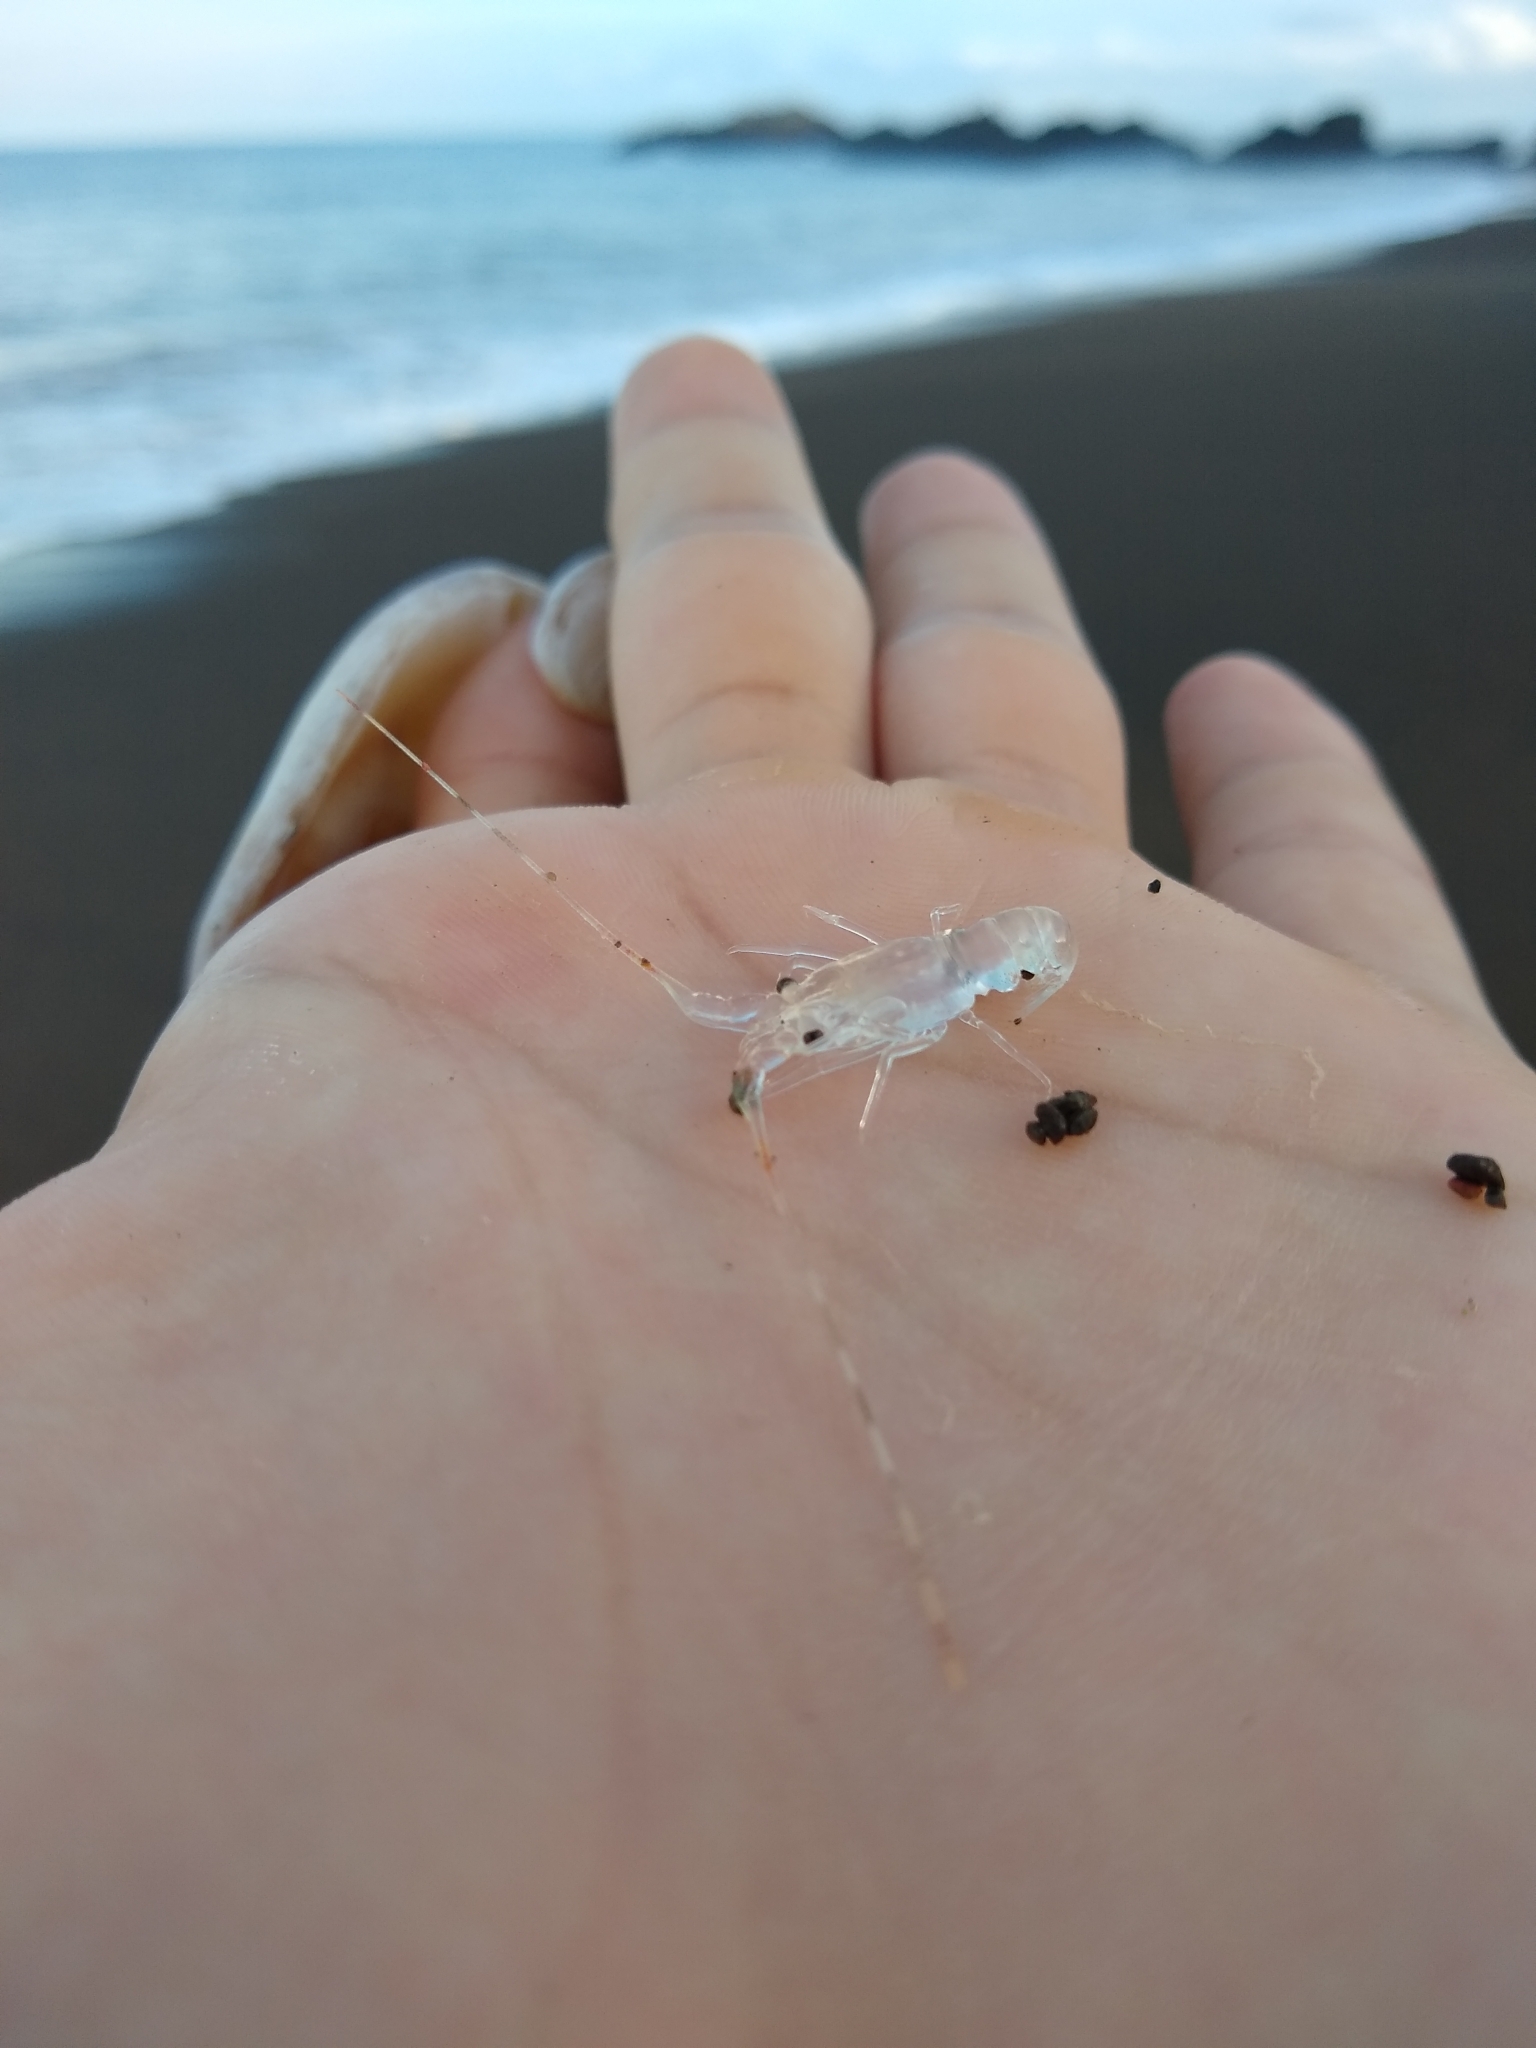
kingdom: Animalia
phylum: Arthropoda
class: Malacostraca
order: Decapoda
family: Palinuridae
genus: Panulirus
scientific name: Panulirus gracilis
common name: Green spiny lobster
